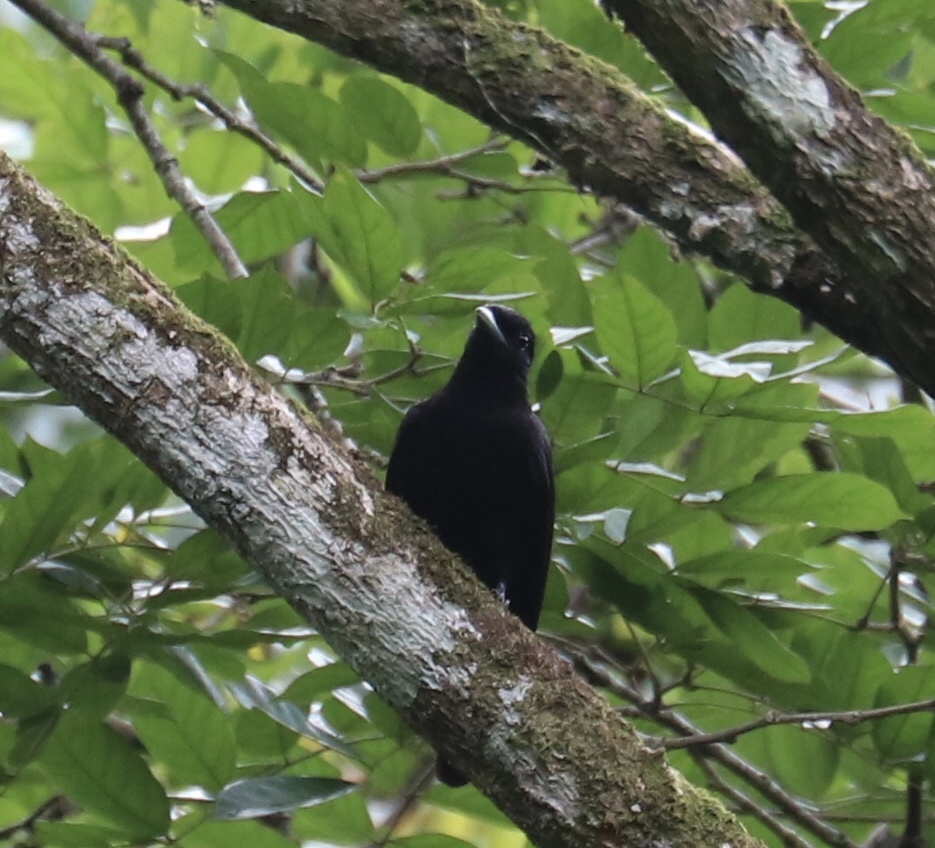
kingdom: Animalia
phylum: Chordata
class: Aves
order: Passeriformes
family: Cotingidae
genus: Querula
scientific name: Querula purpurata
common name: Purple-throated fruitcrow
